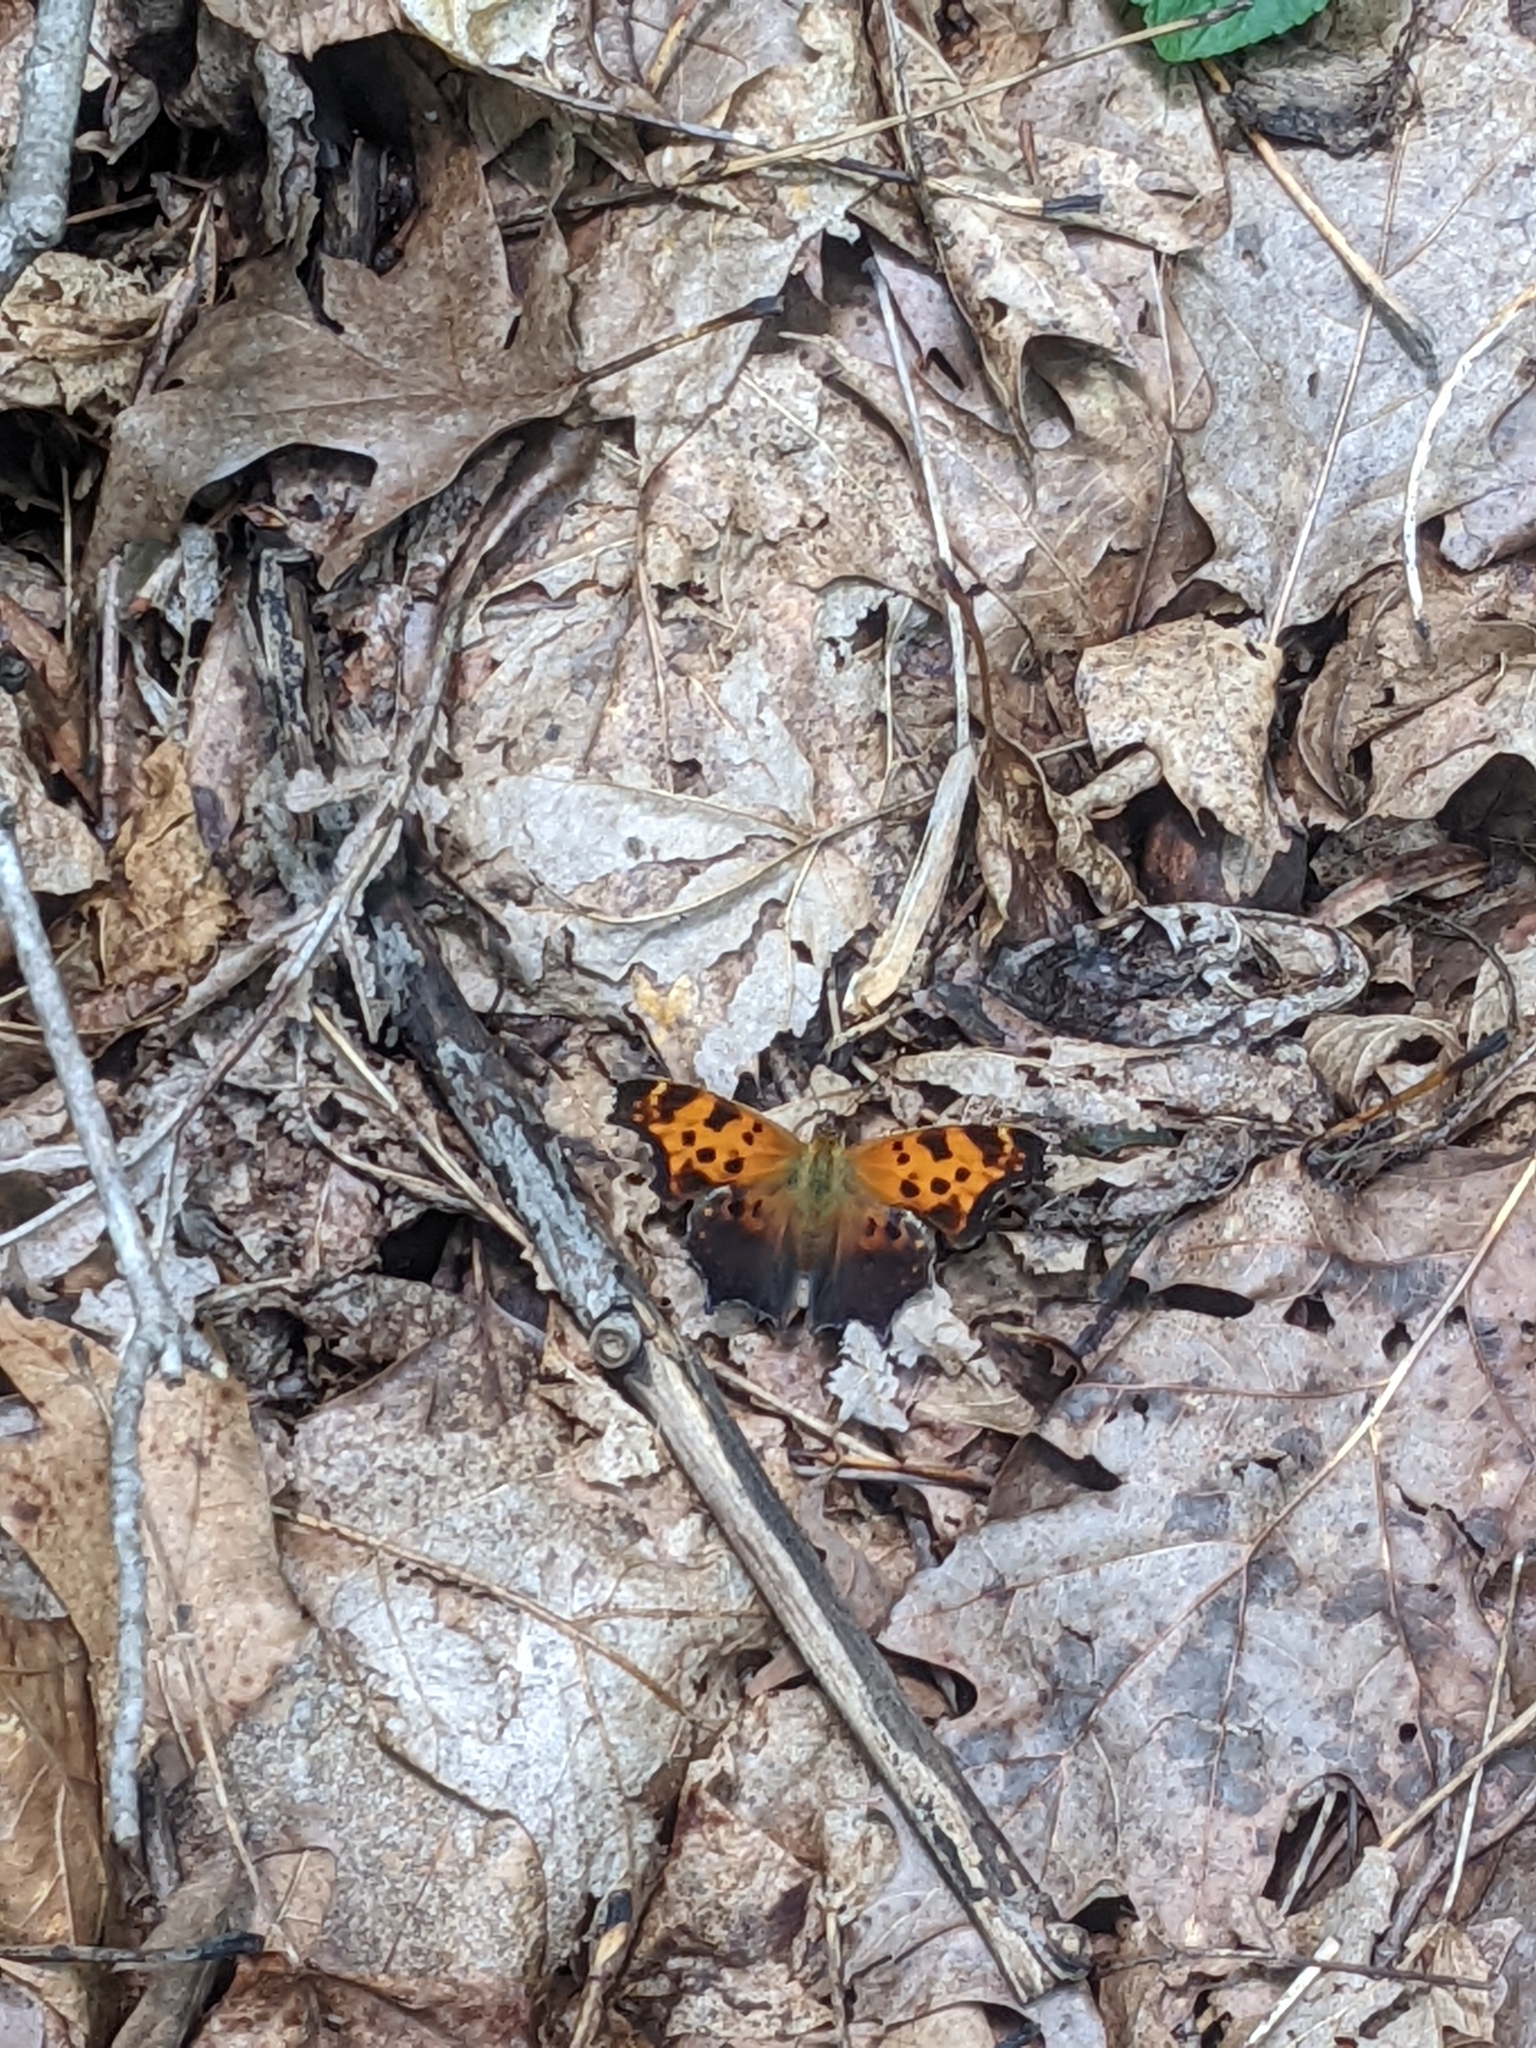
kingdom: Animalia
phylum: Arthropoda
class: Insecta
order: Lepidoptera
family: Nymphalidae
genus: Polygonia
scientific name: Polygonia comma
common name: Eastern comma
